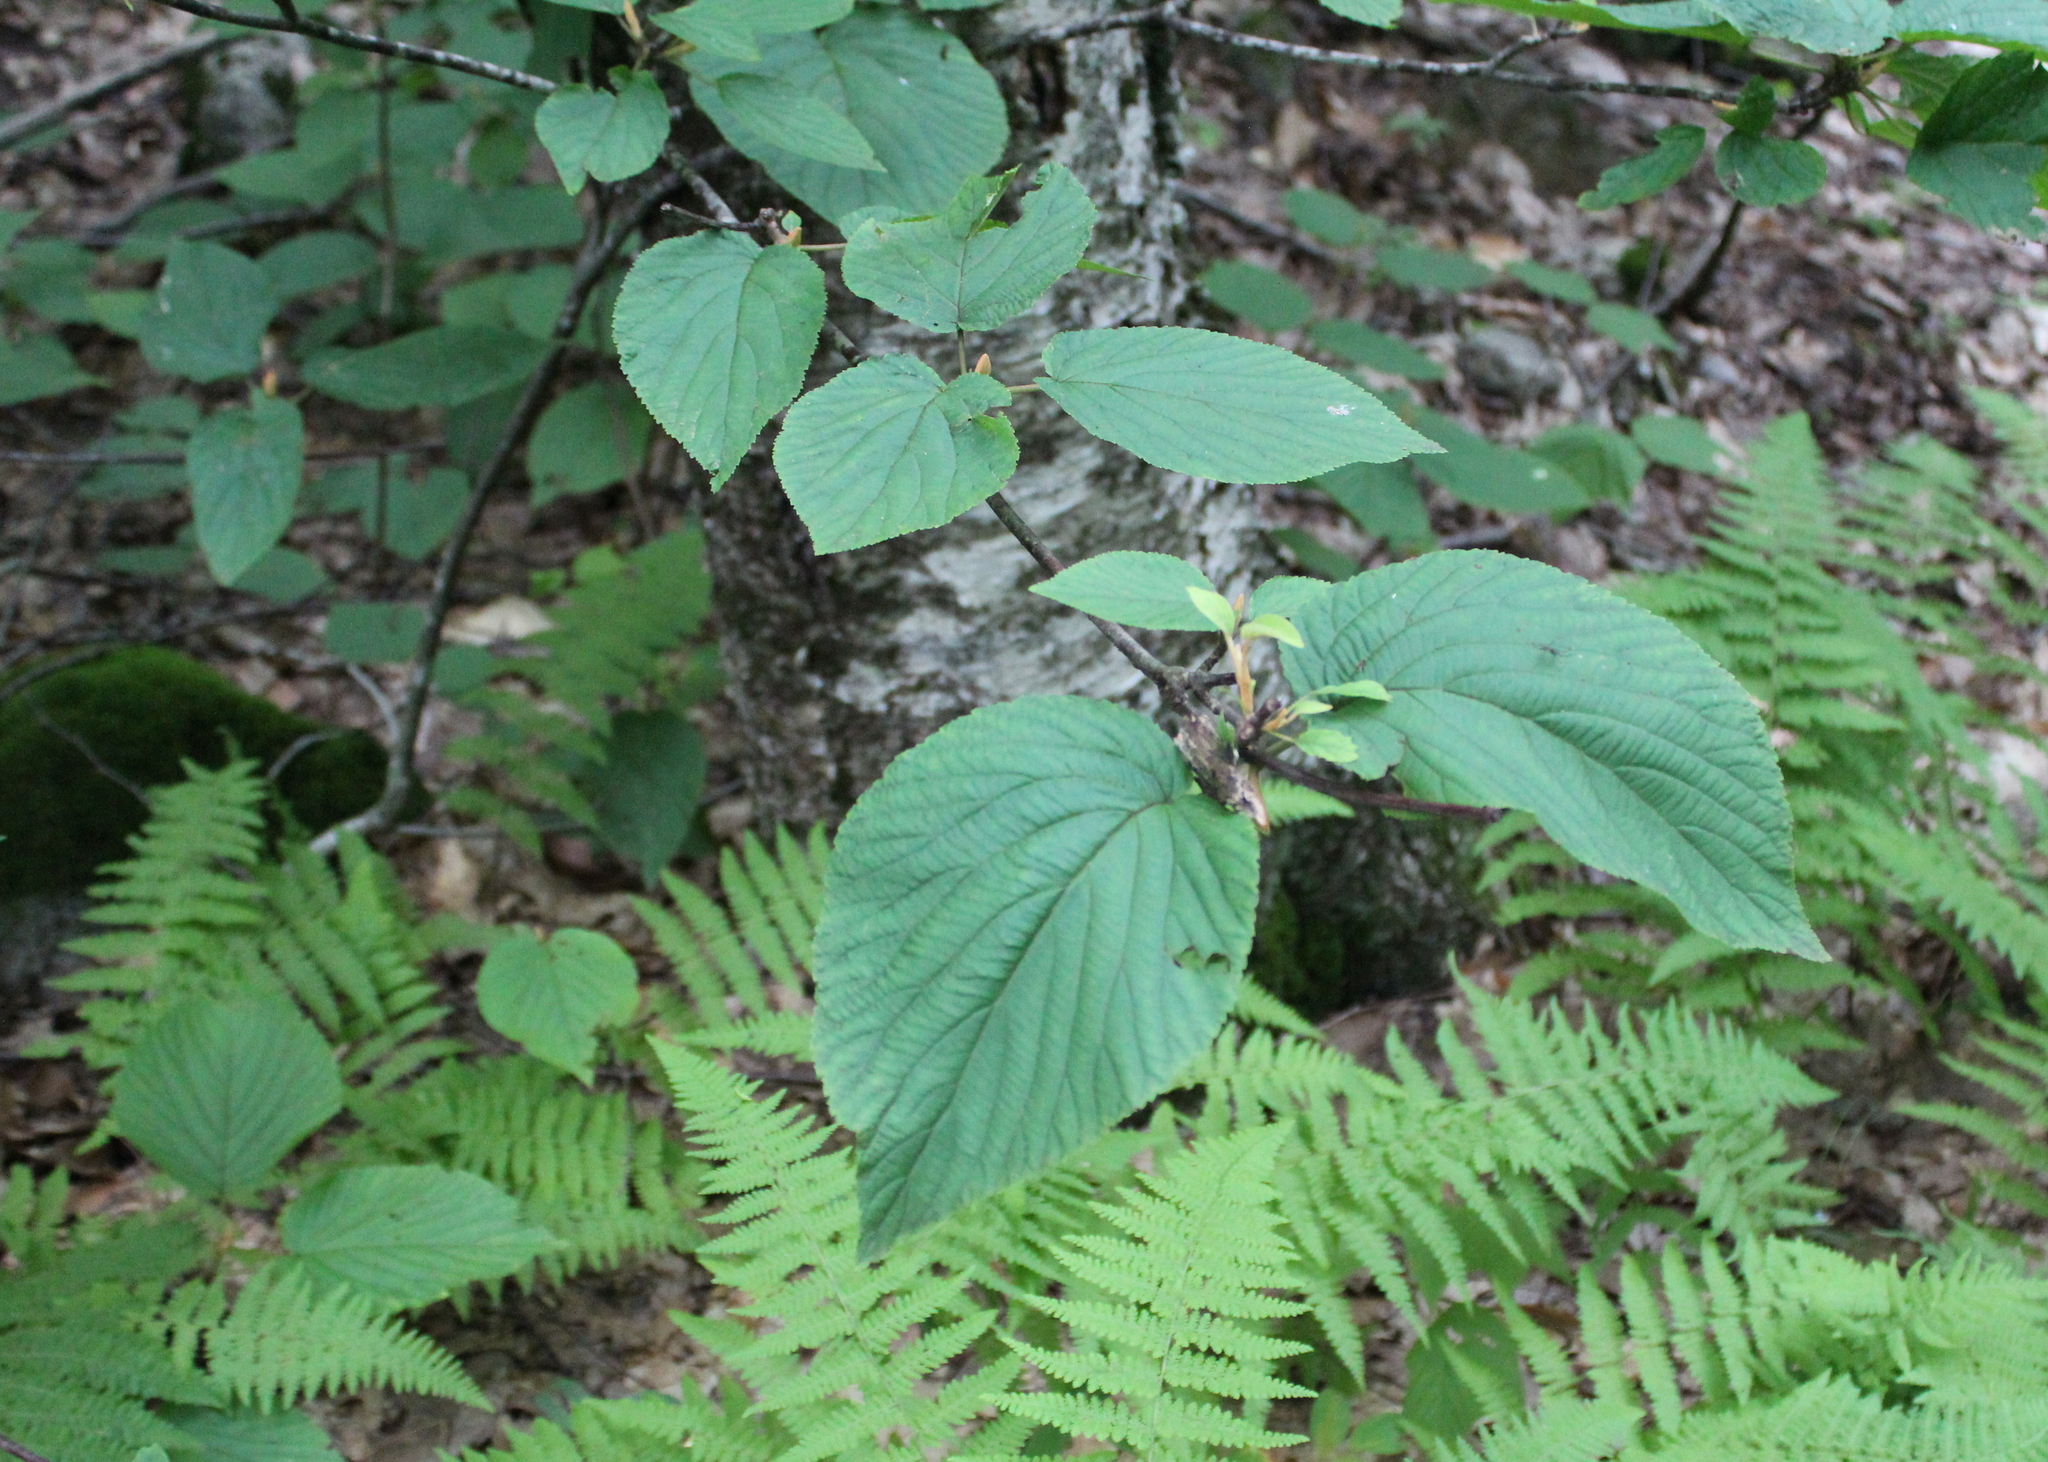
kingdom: Plantae
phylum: Tracheophyta
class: Magnoliopsida
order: Dipsacales
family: Viburnaceae
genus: Viburnum
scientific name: Viburnum lantanoides
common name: Hobblebush
